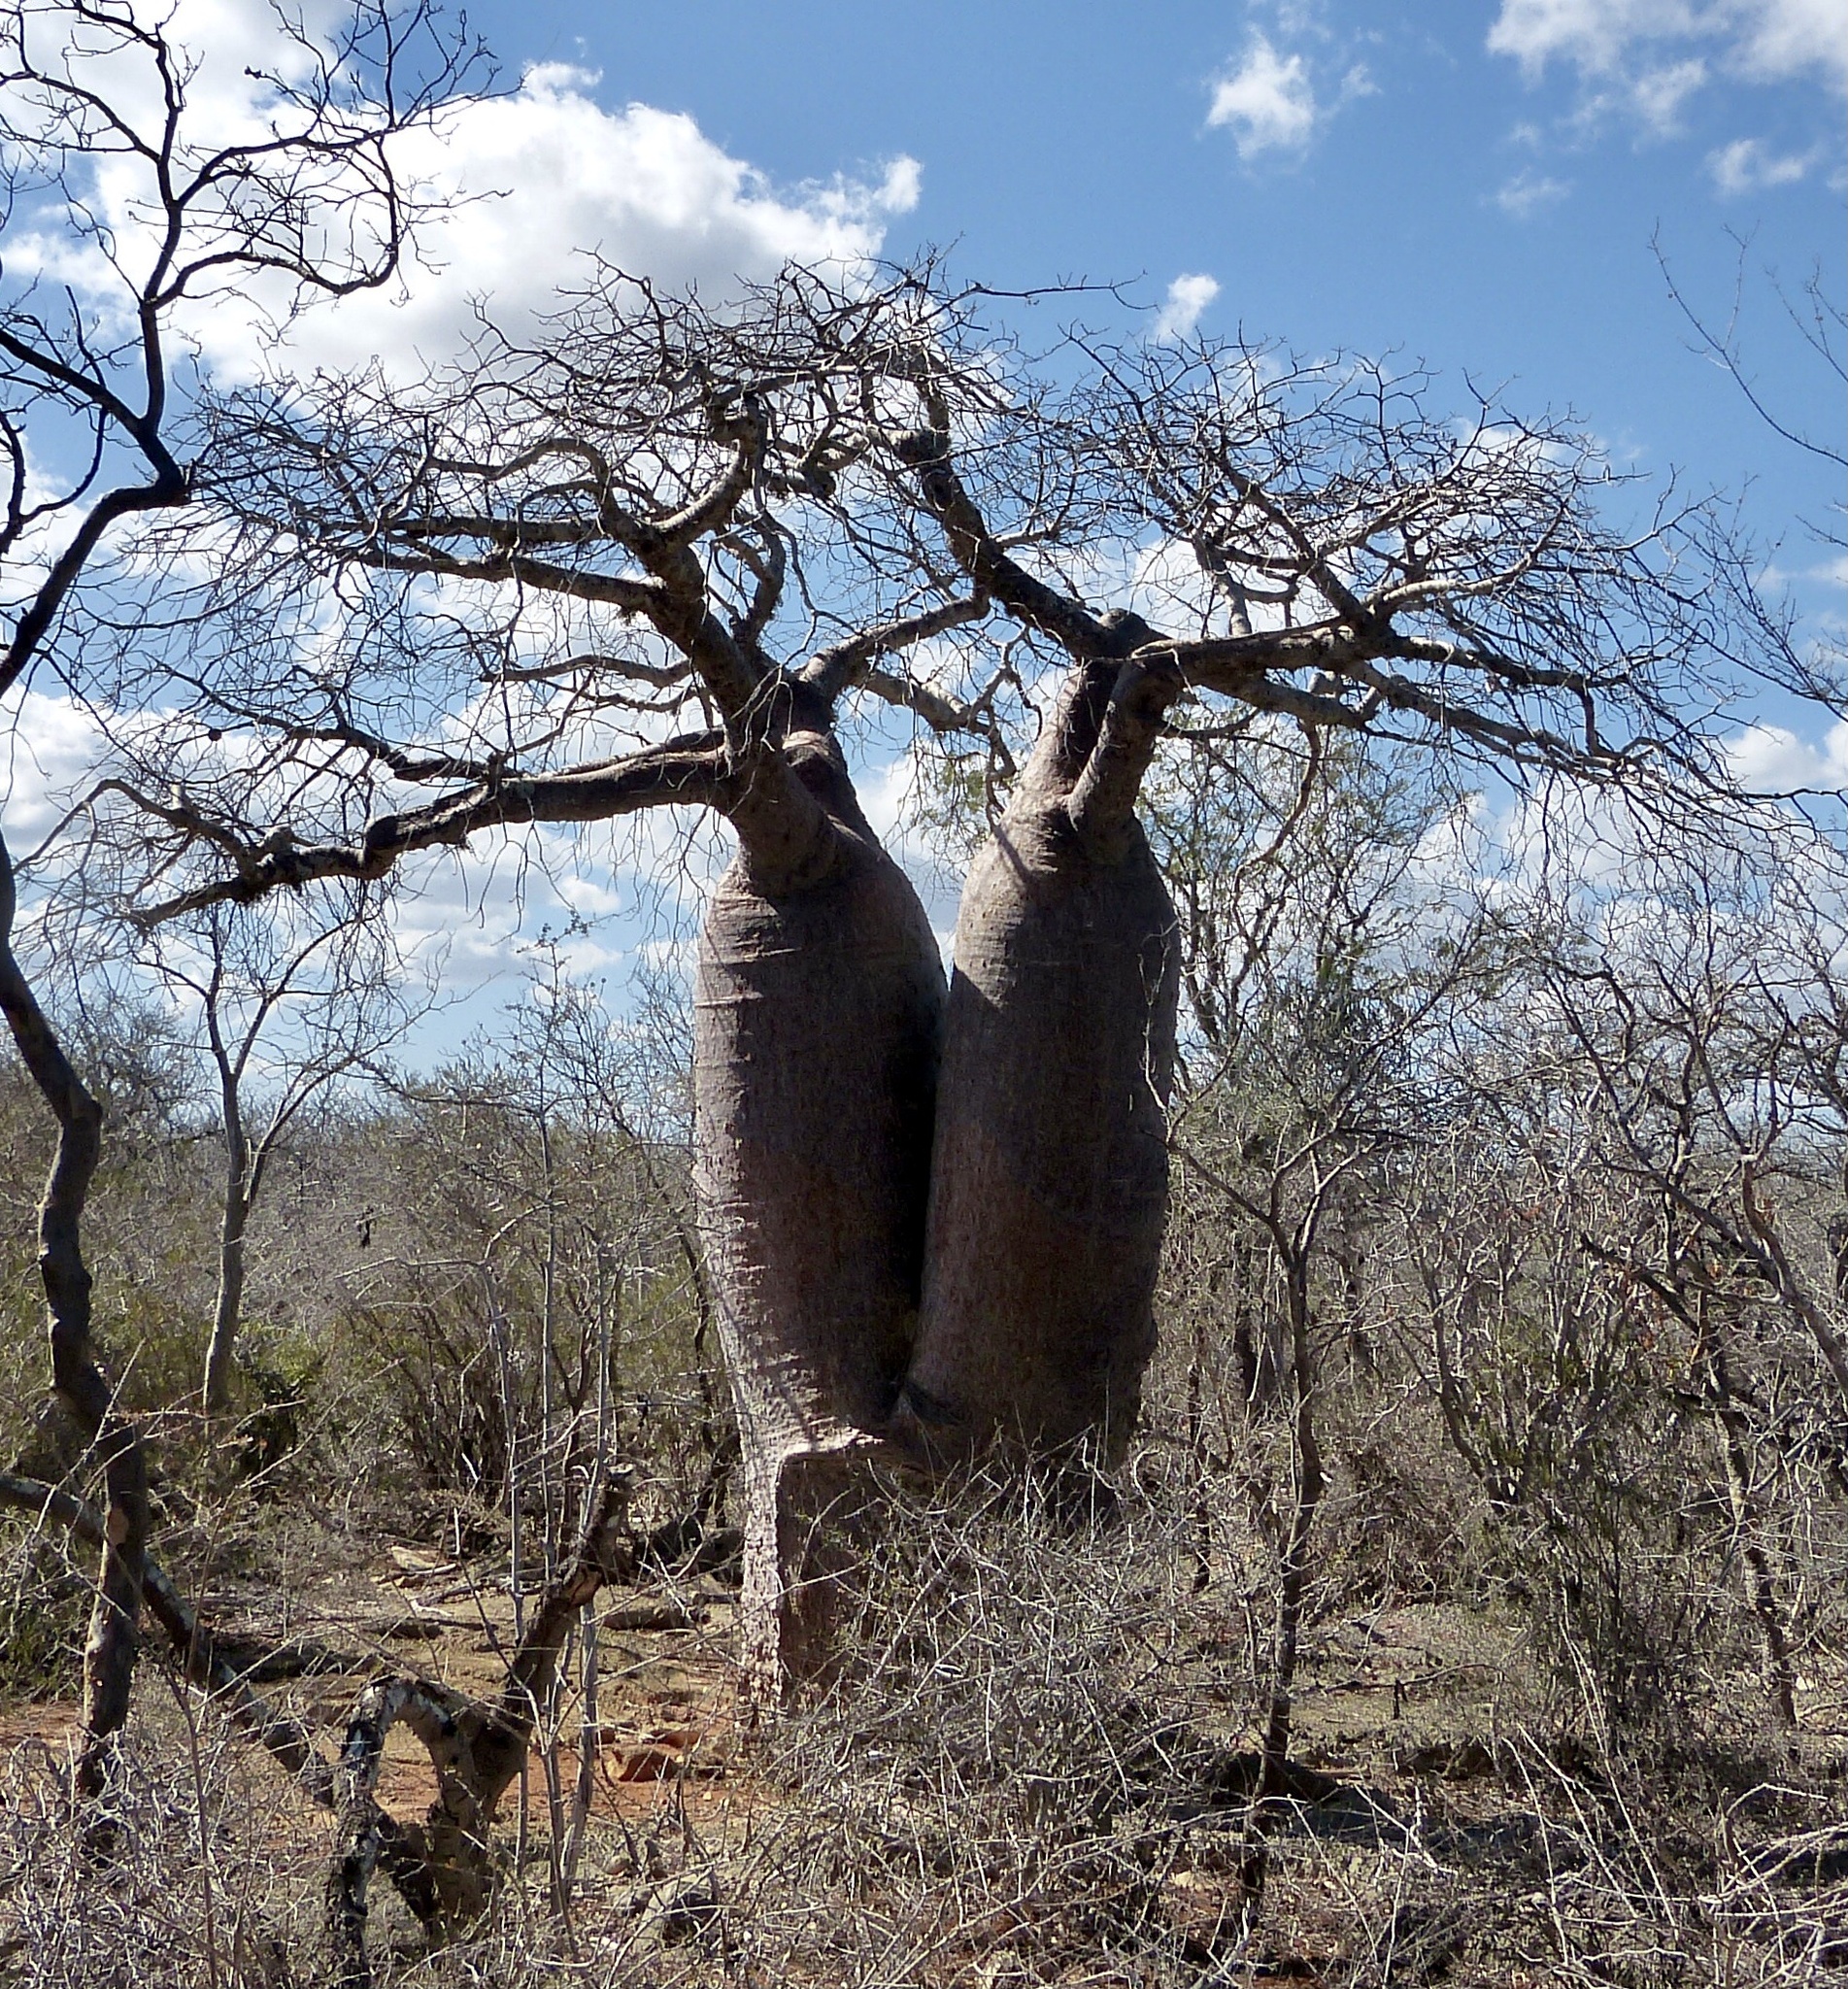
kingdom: Plantae
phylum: Tracheophyta
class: Magnoliopsida
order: Malvales
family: Malvaceae
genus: Adansonia
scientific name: Adansonia rubrostipa
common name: Fony baobab
